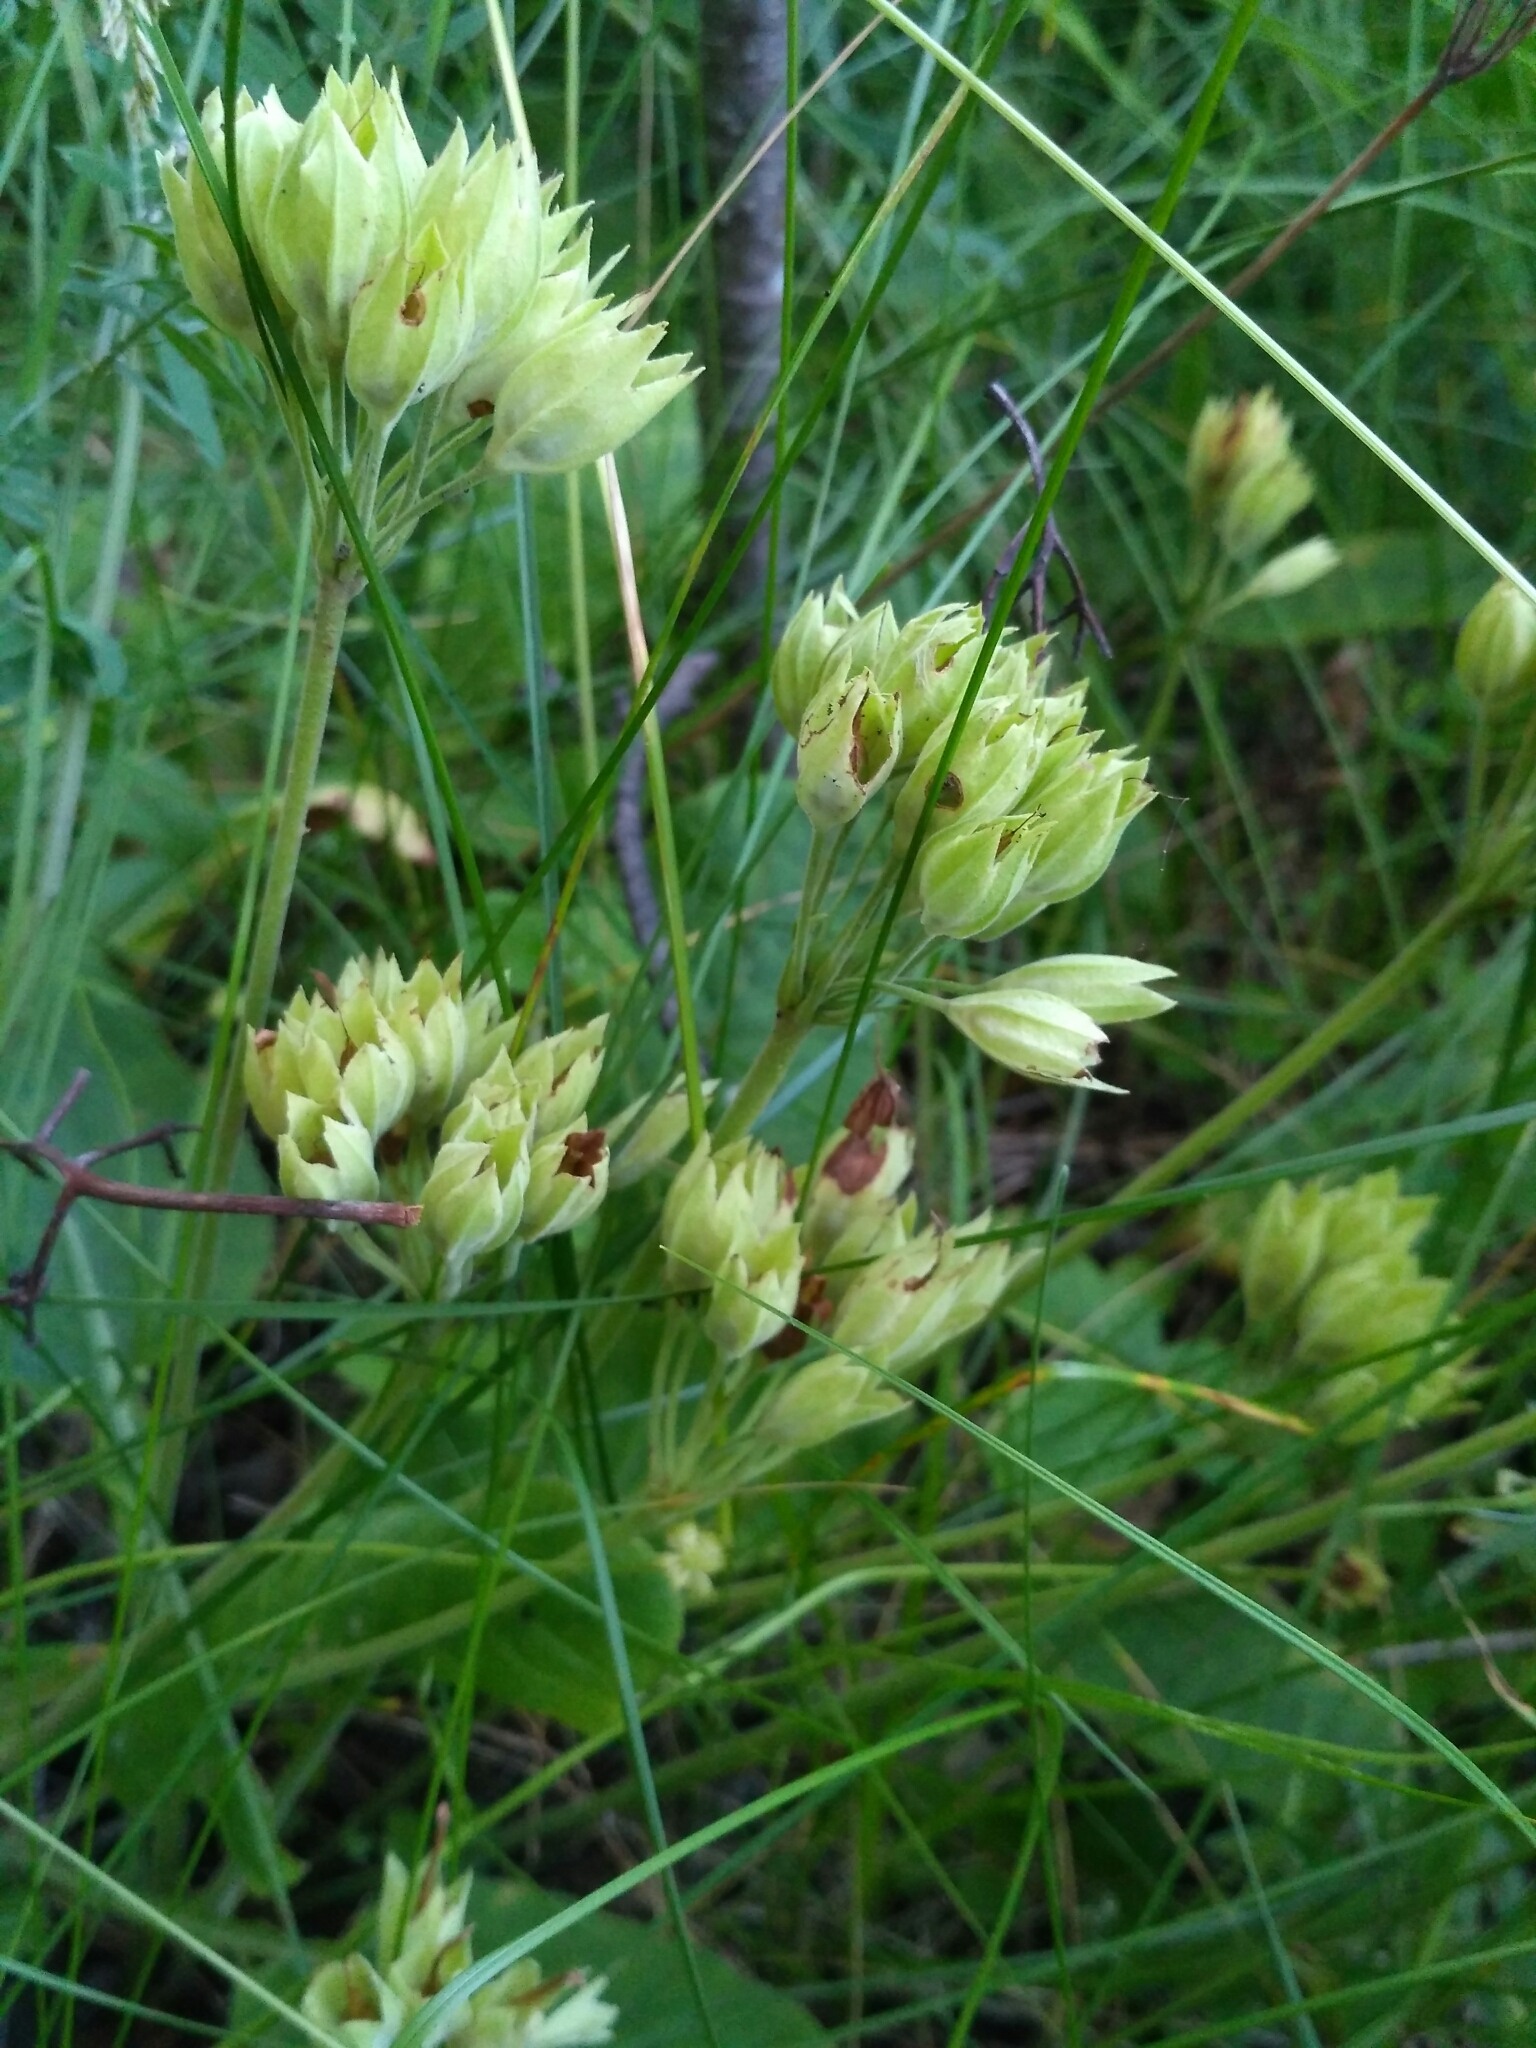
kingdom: Plantae
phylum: Tracheophyta
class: Magnoliopsida
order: Ericales
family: Primulaceae
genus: Primula
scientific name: Primula veris
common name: Cowslip
